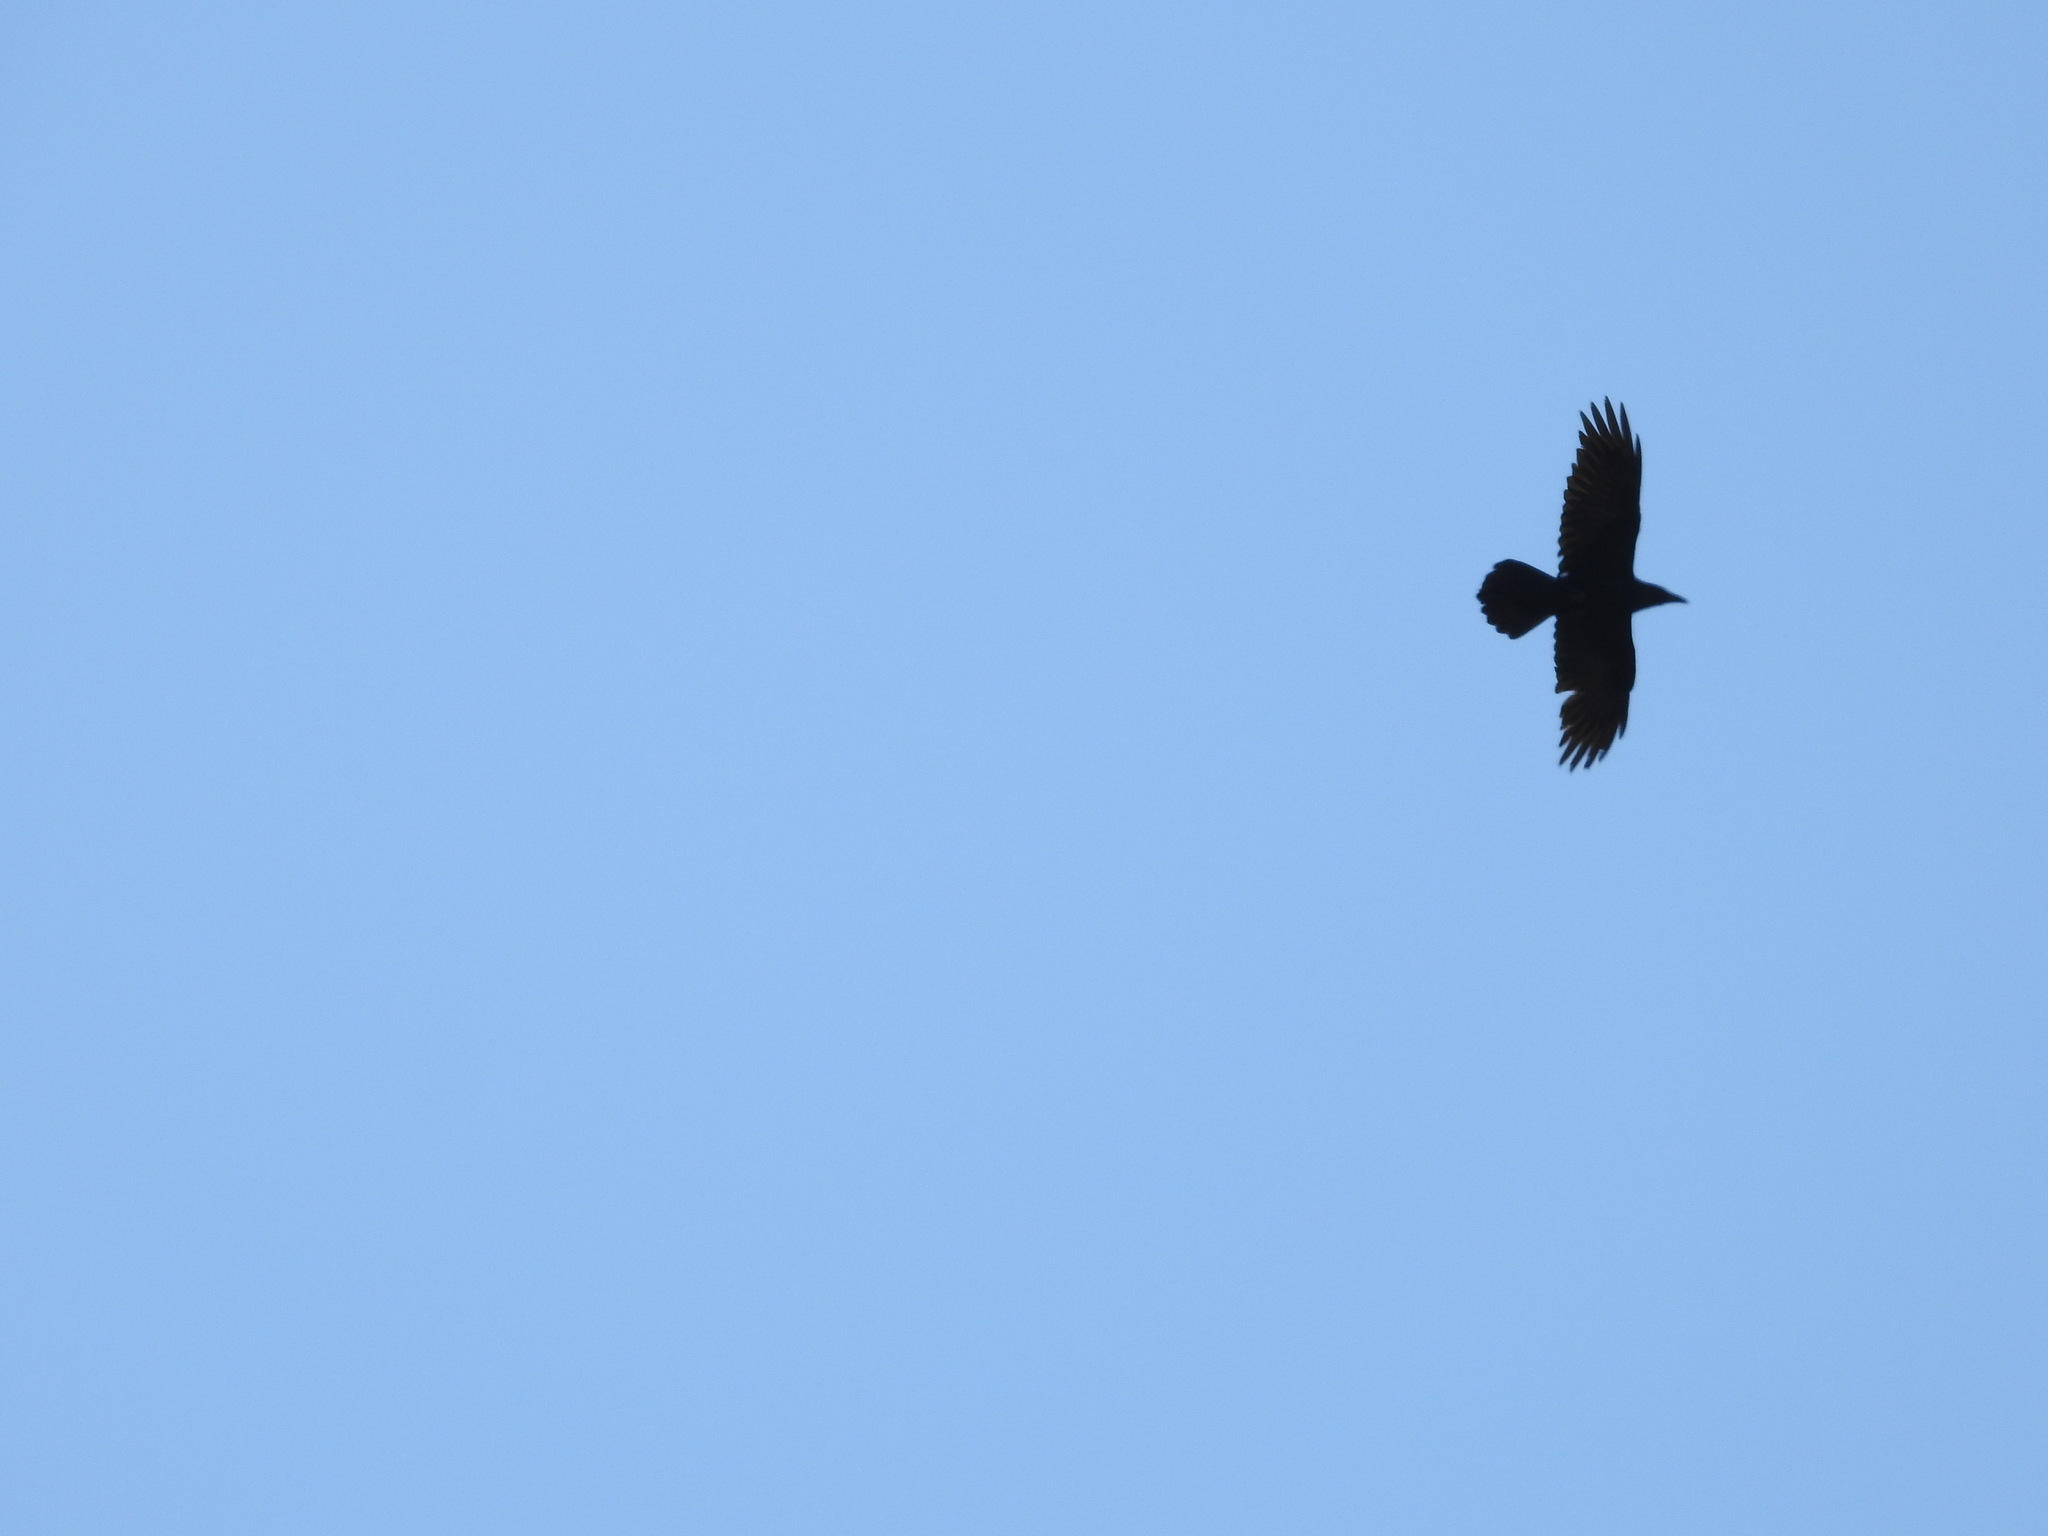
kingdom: Animalia
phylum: Chordata
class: Aves
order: Passeriformes
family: Corvidae
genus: Corvus
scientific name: Corvus corax
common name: Common raven
